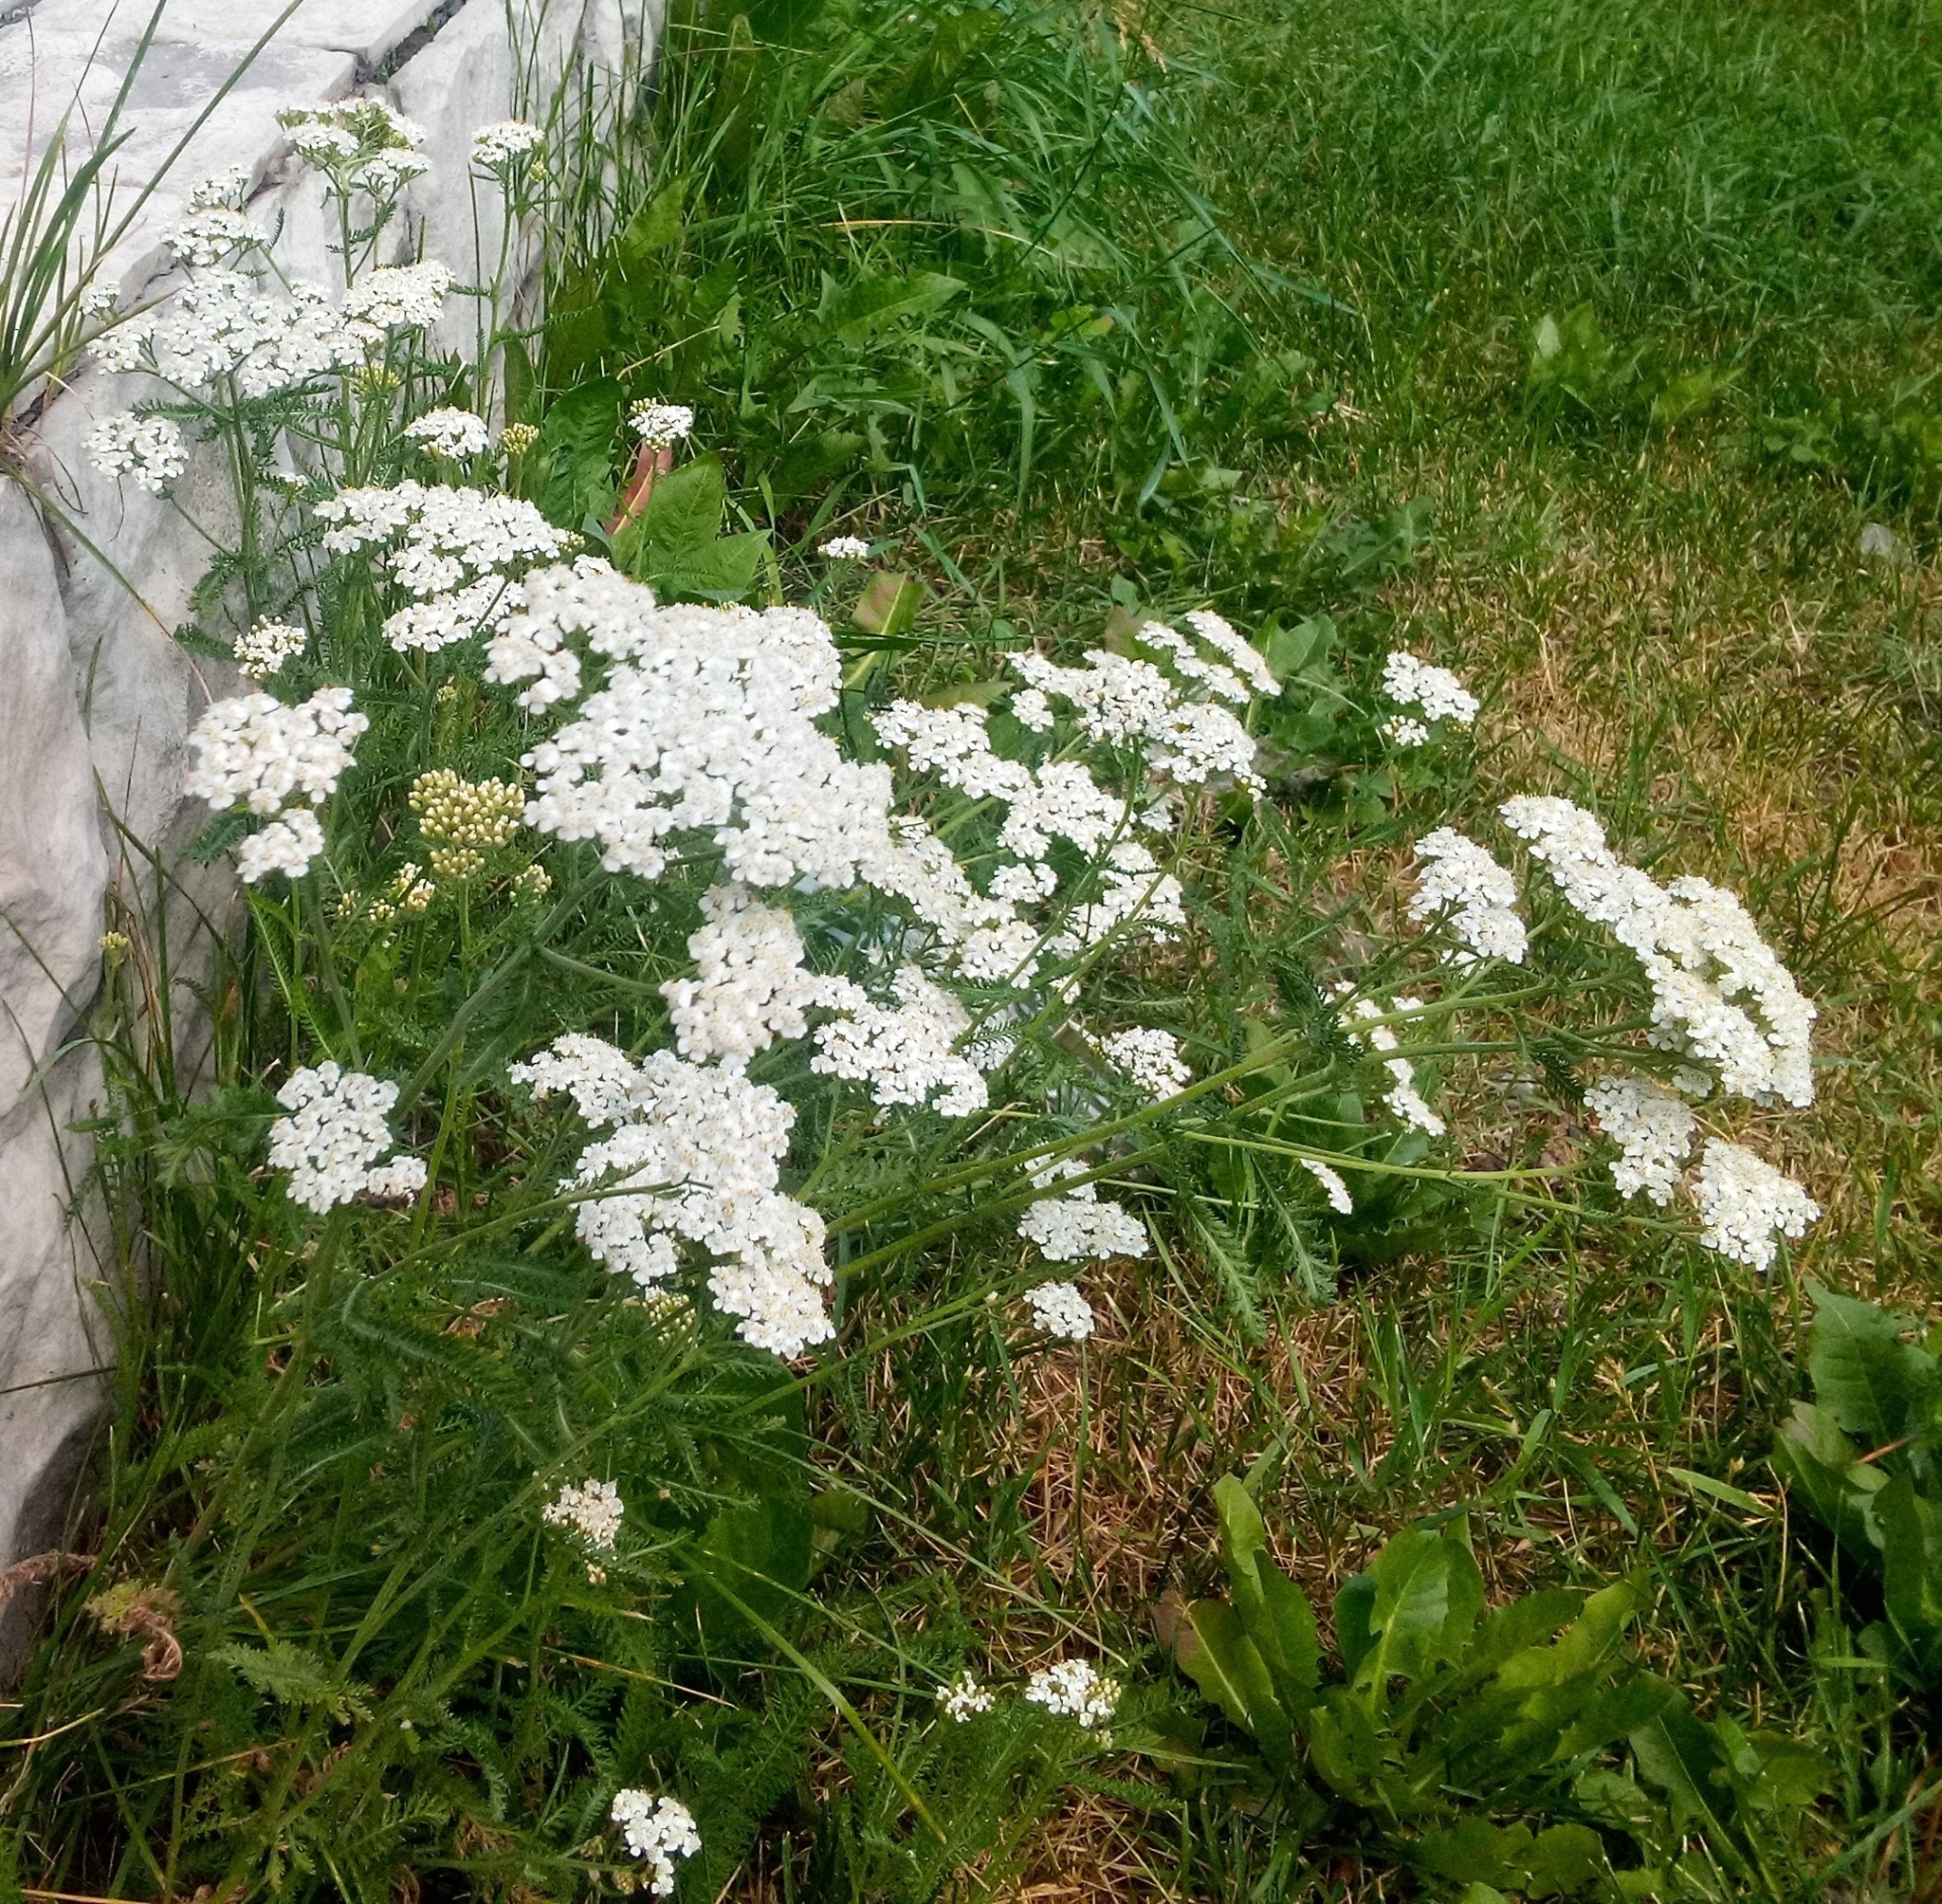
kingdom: Plantae
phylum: Tracheophyta
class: Magnoliopsida
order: Asterales
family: Asteraceae
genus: Achillea
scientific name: Achillea millefolium
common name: Yarrow
